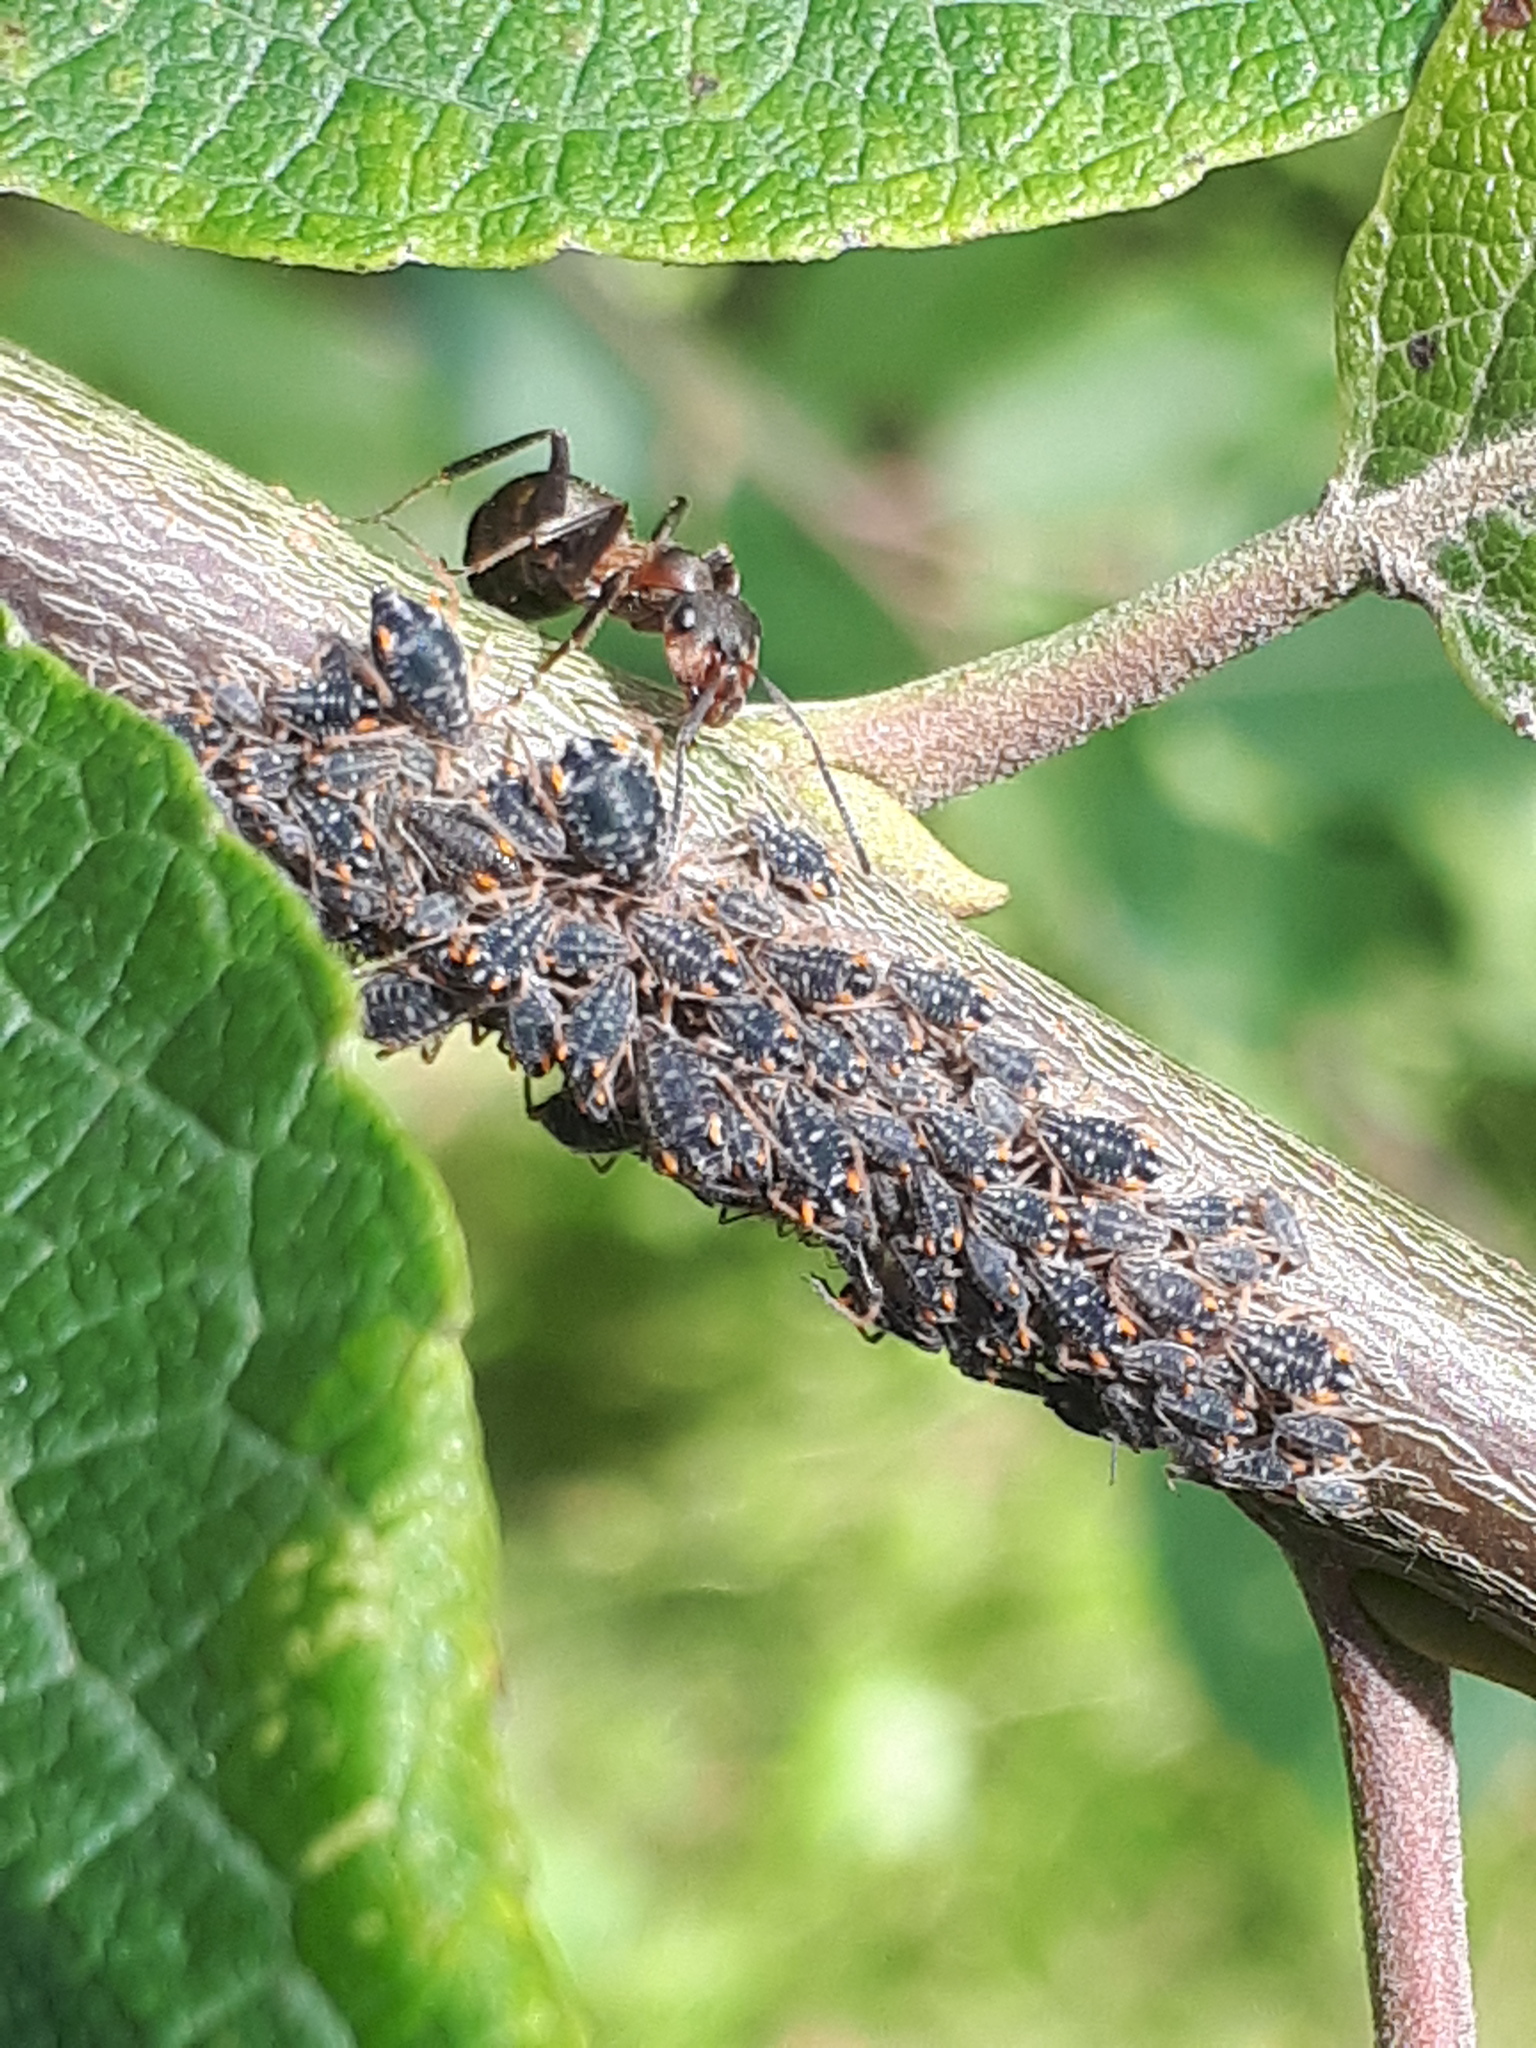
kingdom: Animalia
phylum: Arthropoda
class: Insecta
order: Hemiptera
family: Aphididae
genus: Pterocomma
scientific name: Pterocomma salicis
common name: Aphid
